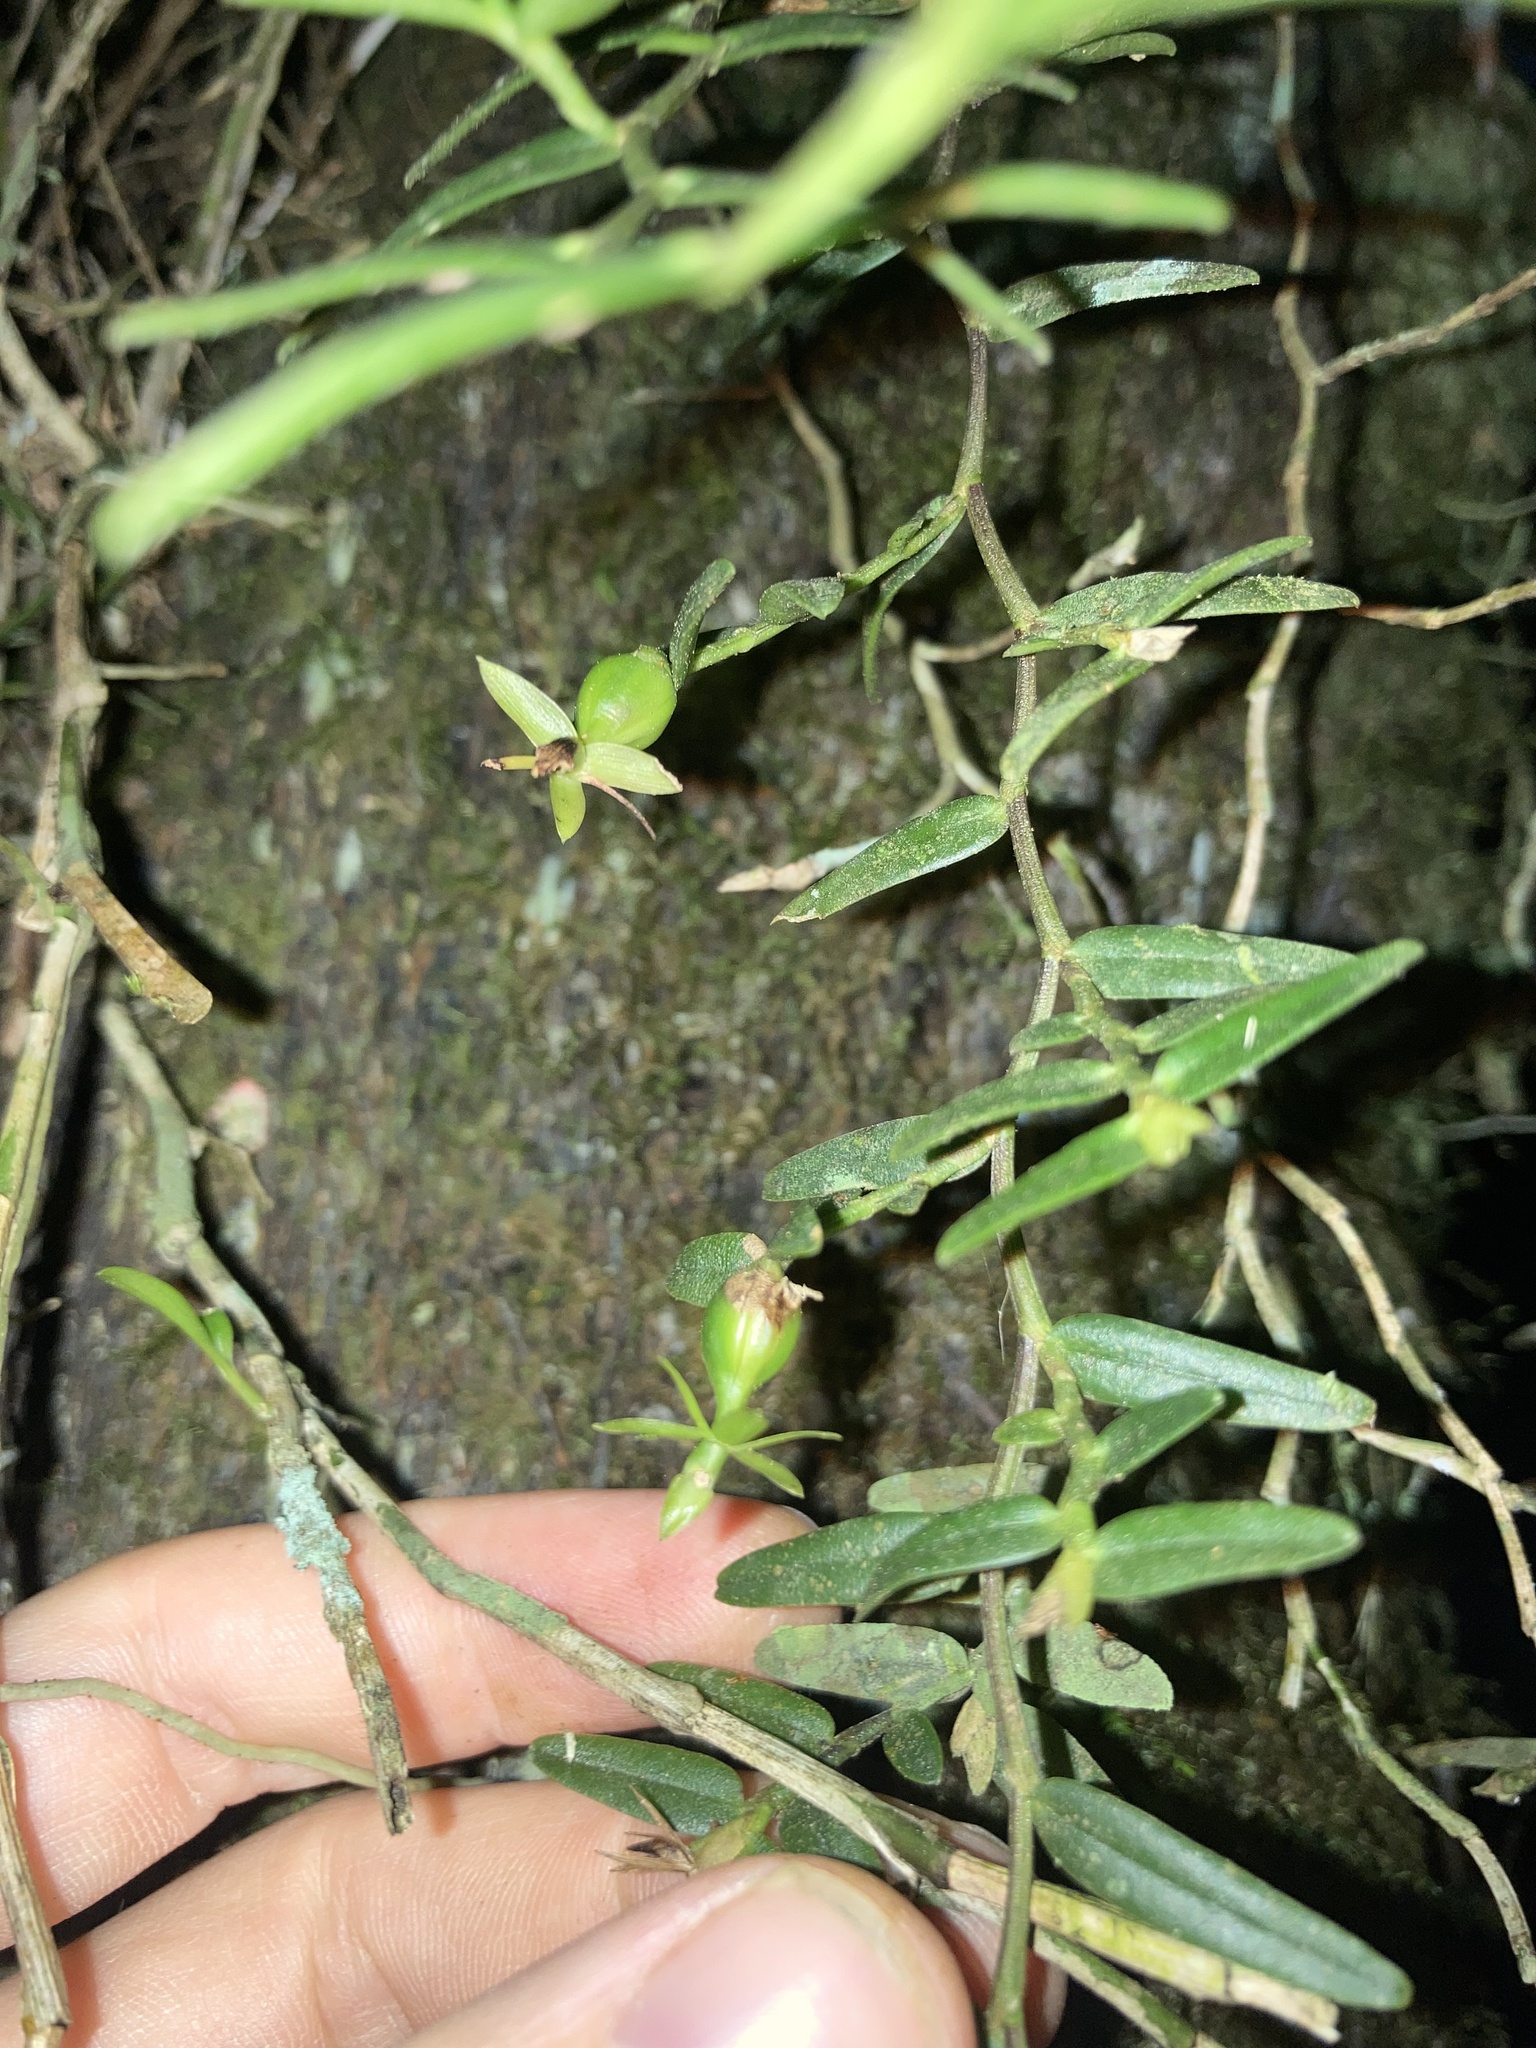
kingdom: Plantae
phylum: Tracheophyta
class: Liliopsida
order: Asparagales
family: Orchidaceae
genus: Epidendrum
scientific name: Epidendrum repens
